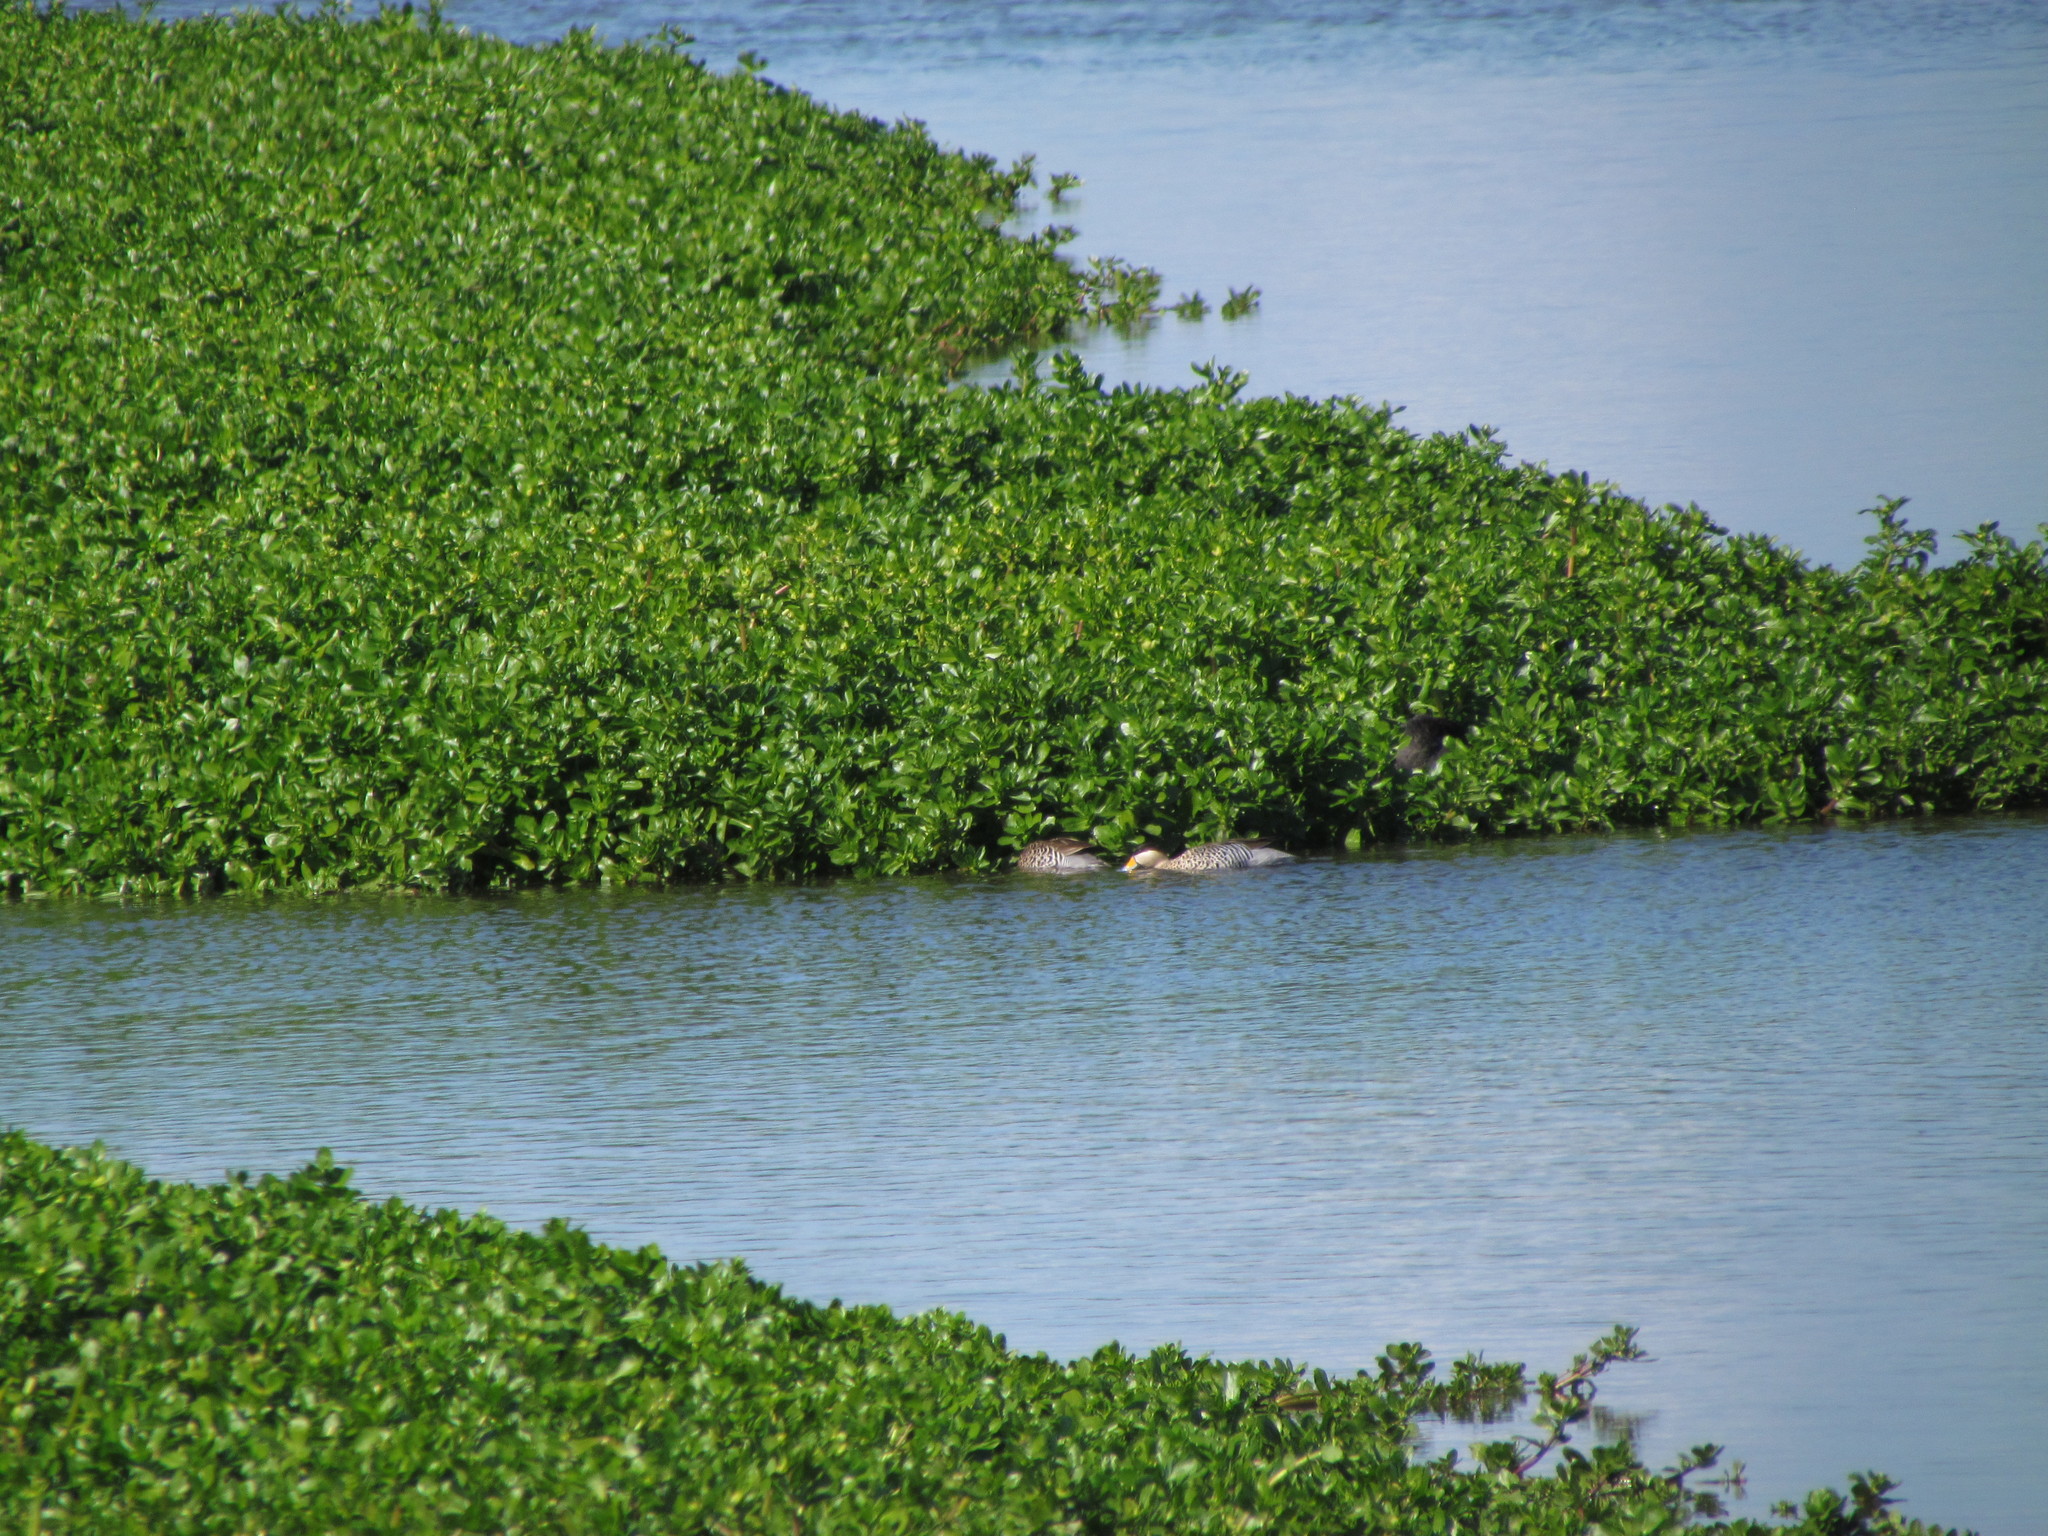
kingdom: Animalia
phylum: Chordata
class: Aves
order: Anseriformes
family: Anatidae
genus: Spatula
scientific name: Spatula versicolor
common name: Silver teal
